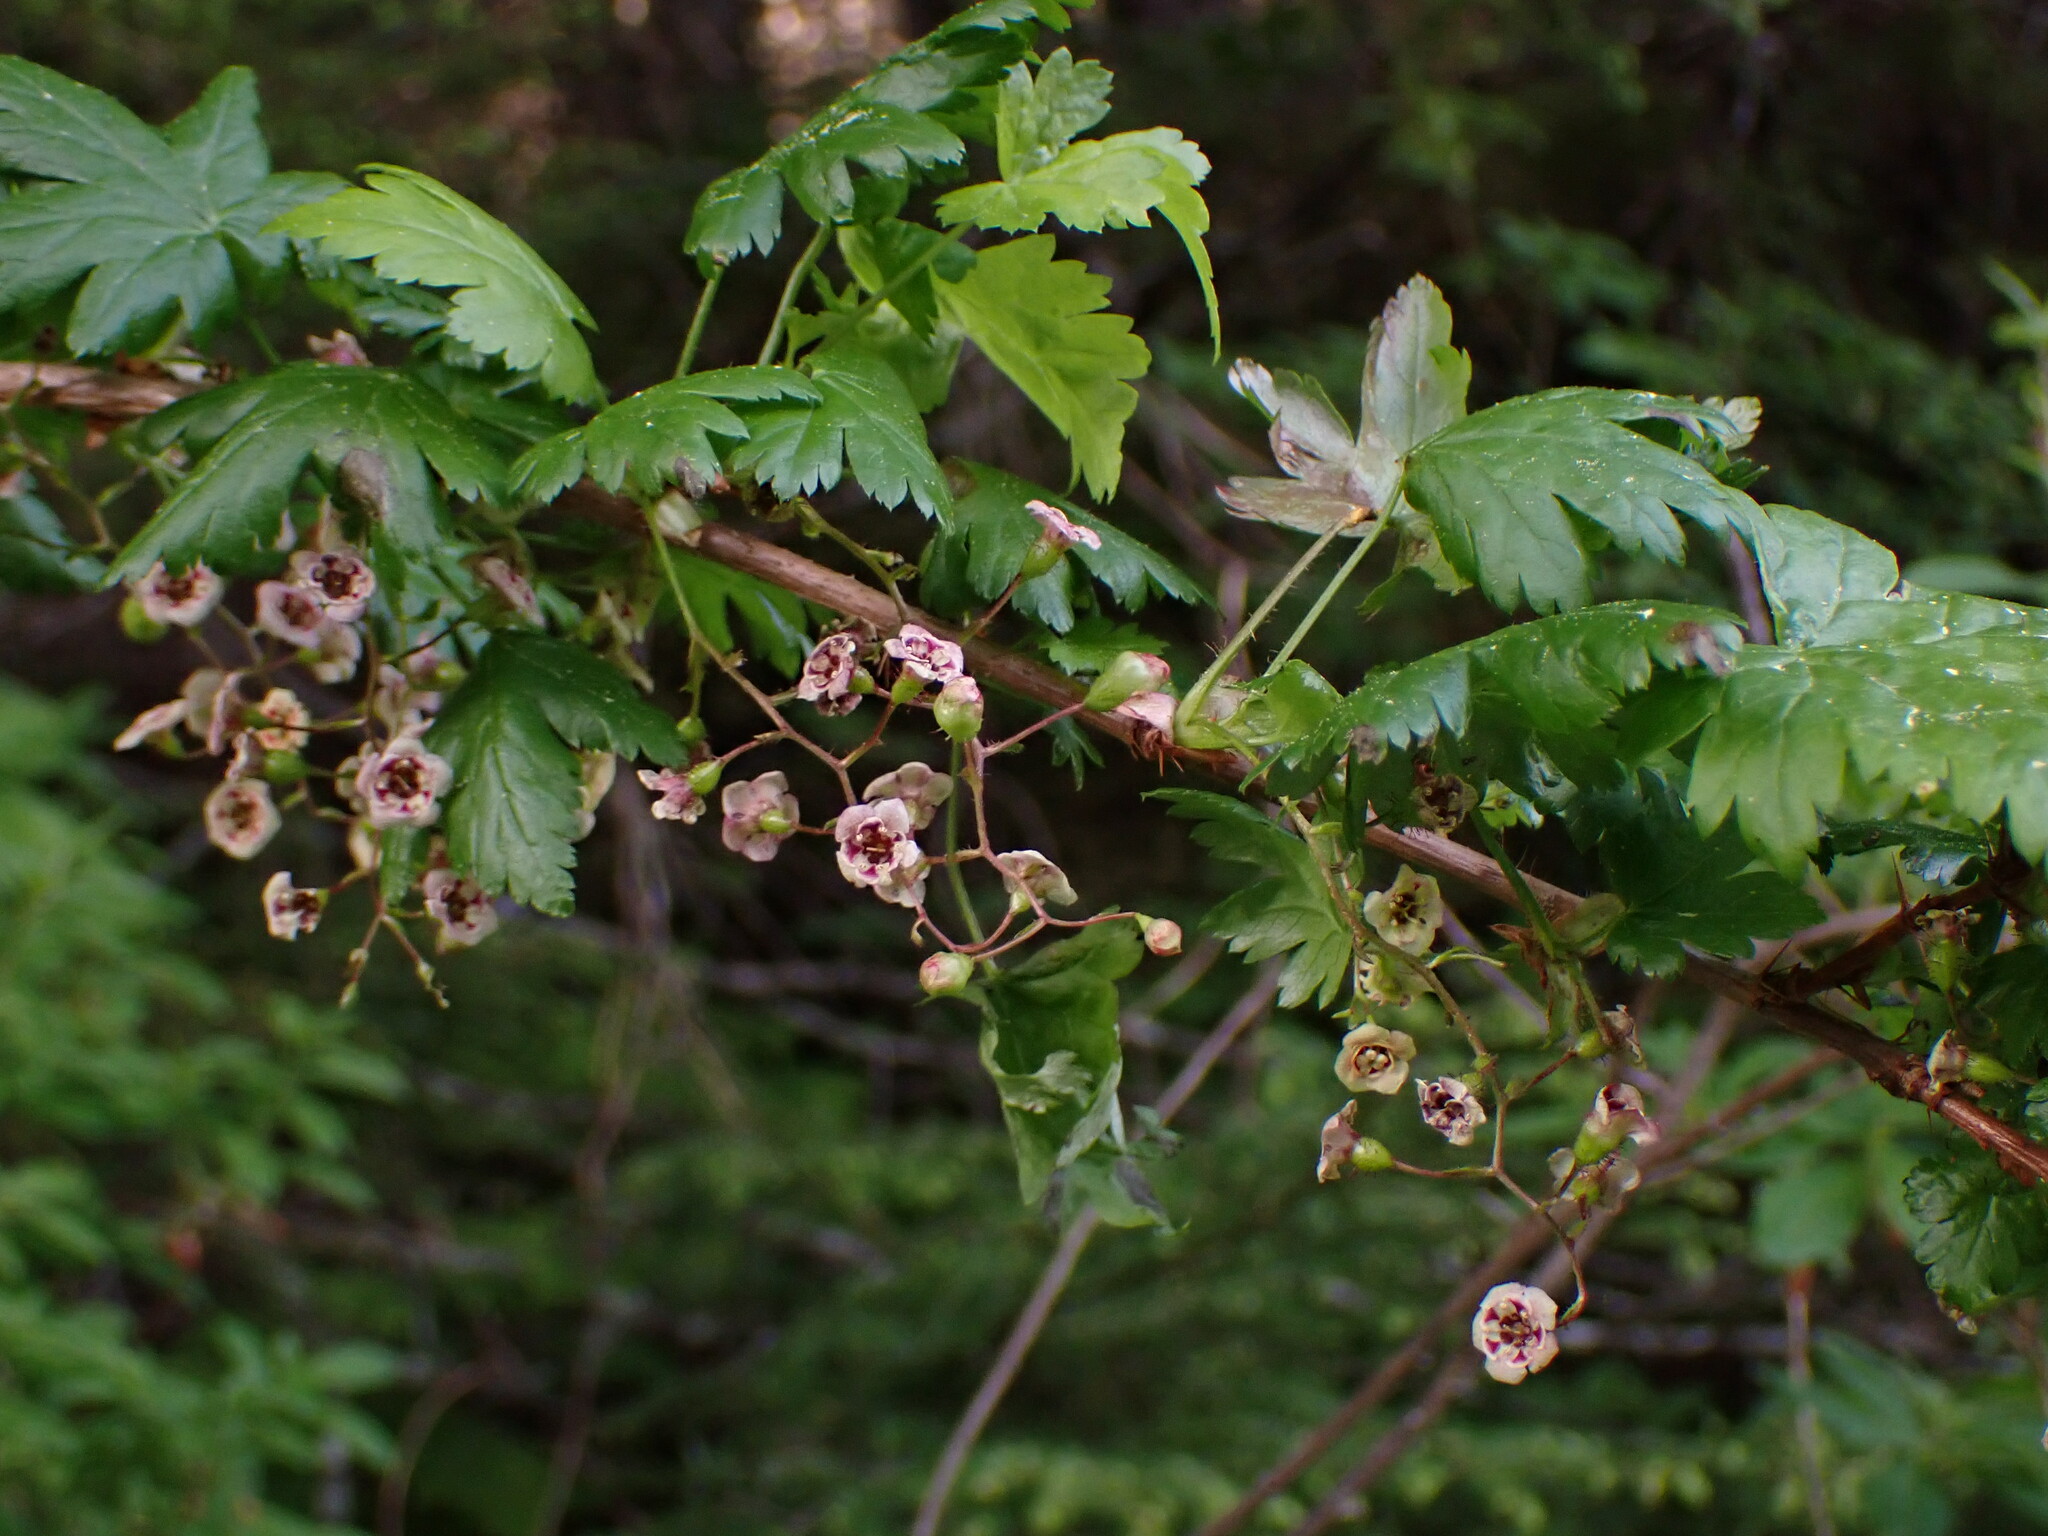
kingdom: Plantae
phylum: Tracheophyta
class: Magnoliopsida
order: Saxifragales
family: Grossulariaceae
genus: Ribes
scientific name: Ribes lacustre
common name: Black gooseberry
